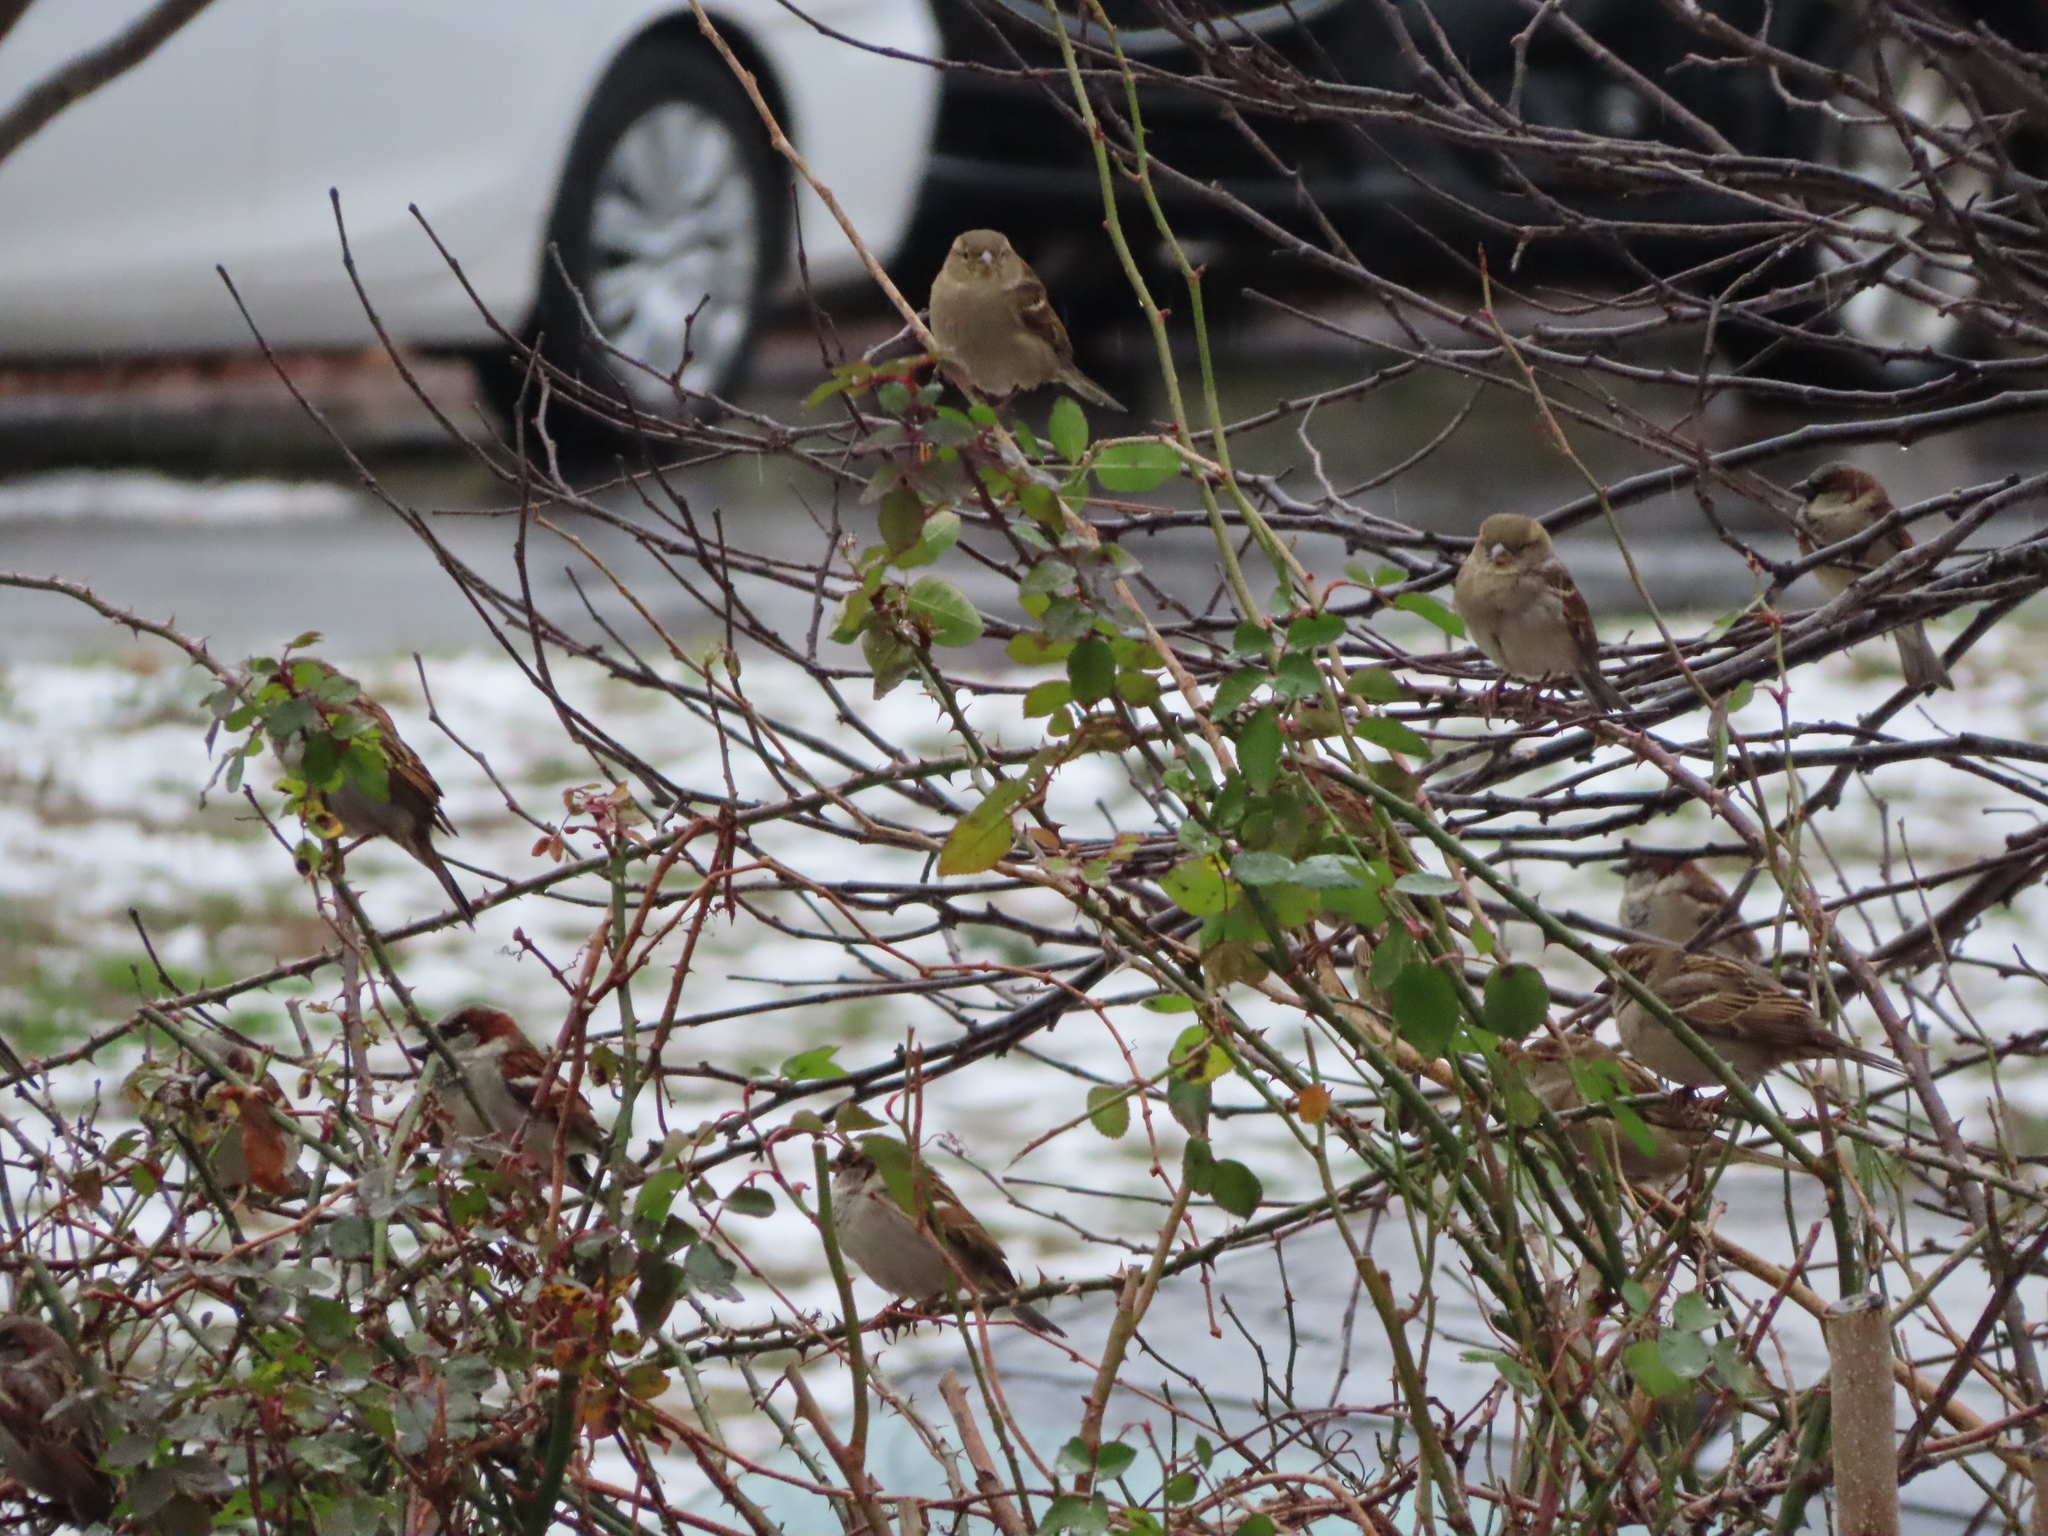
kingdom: Animalia
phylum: Chordata
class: Aves
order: Passeriformes
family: Passeridae
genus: Passer
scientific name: Passer domesticus
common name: House sparrow
